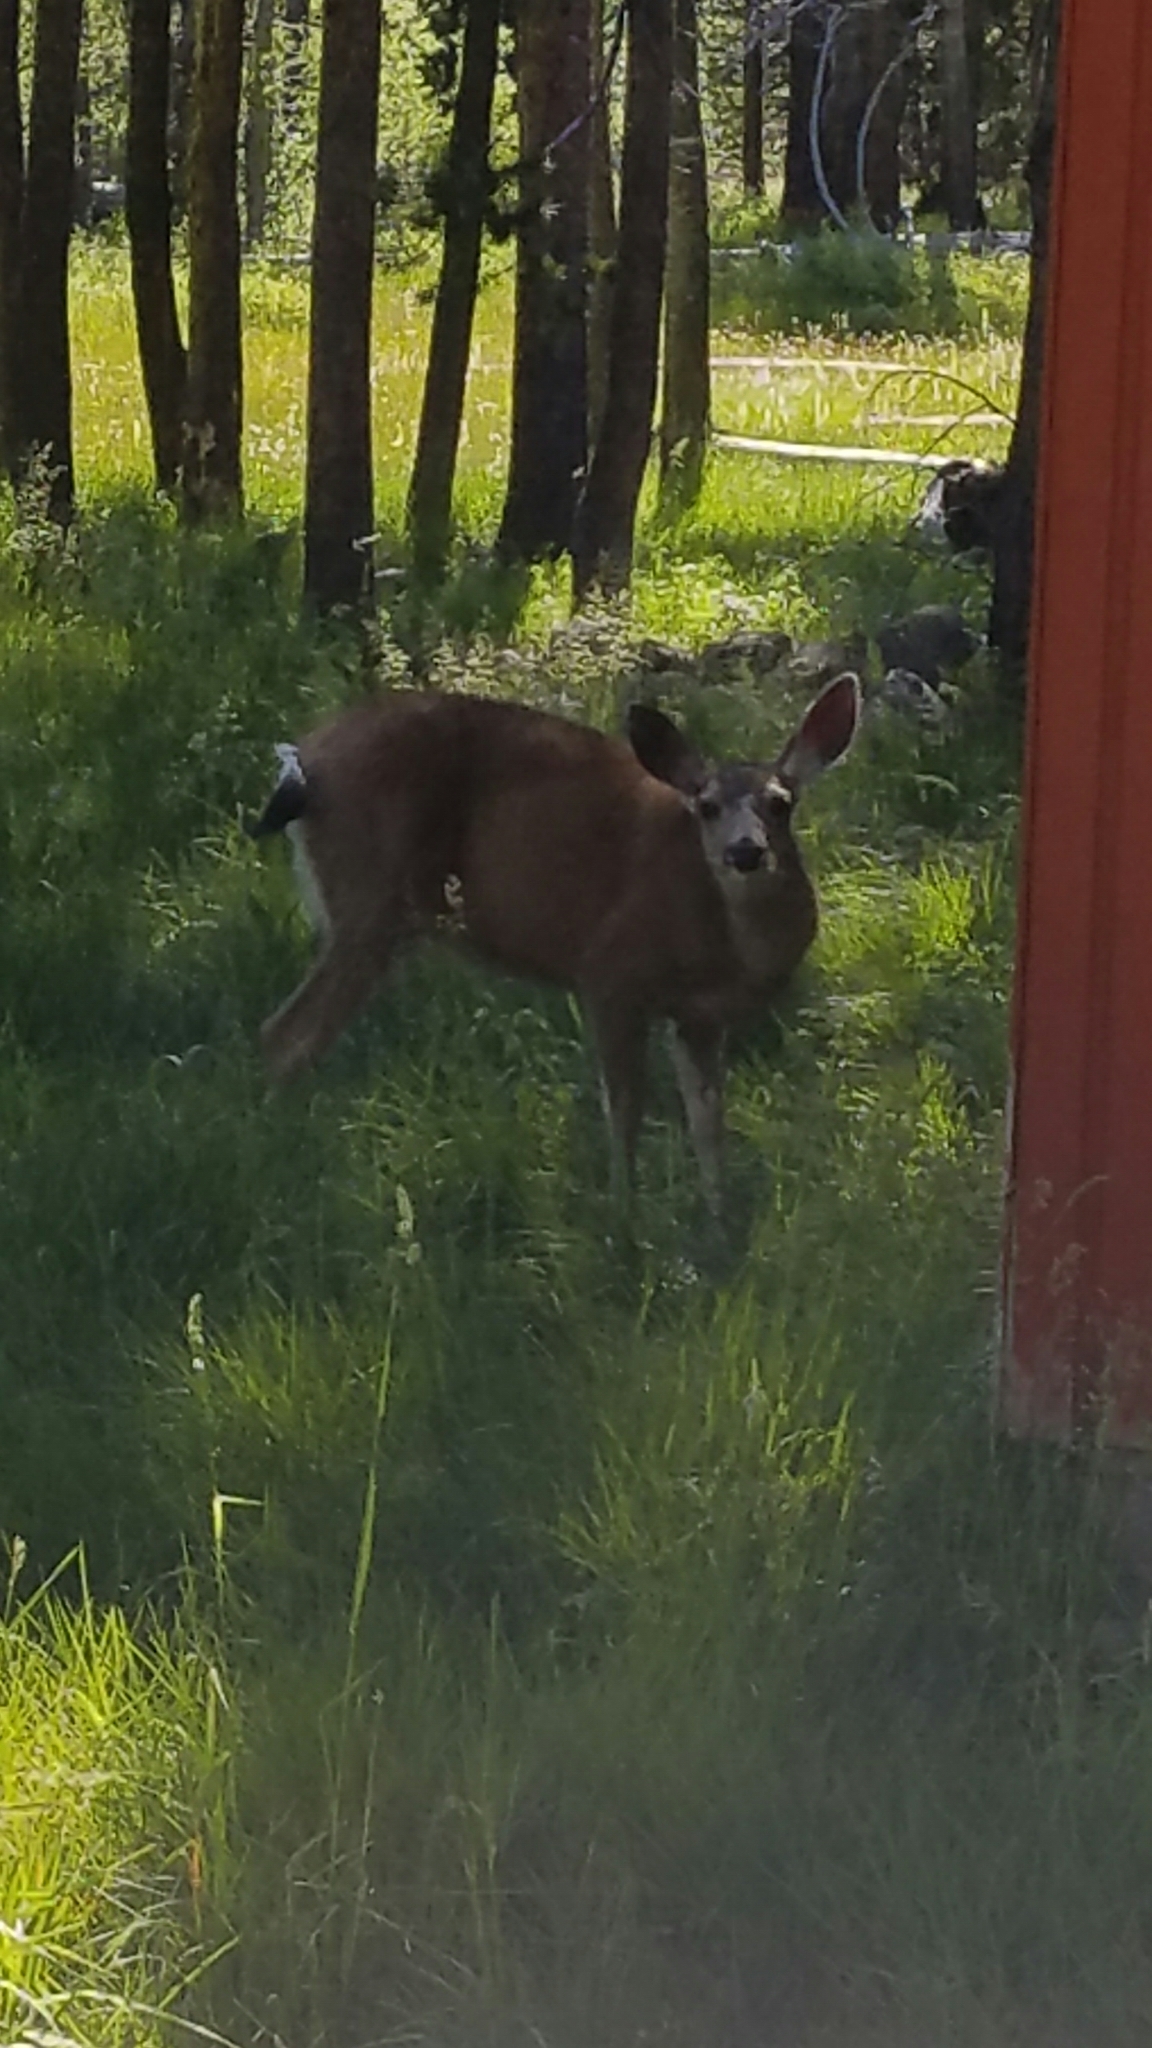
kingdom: Animalia
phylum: Chordata
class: Mammalia
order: Artiodactyla
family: Cervidae
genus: Odocoileus
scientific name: Odocoileus hemionus
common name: Mule deer
